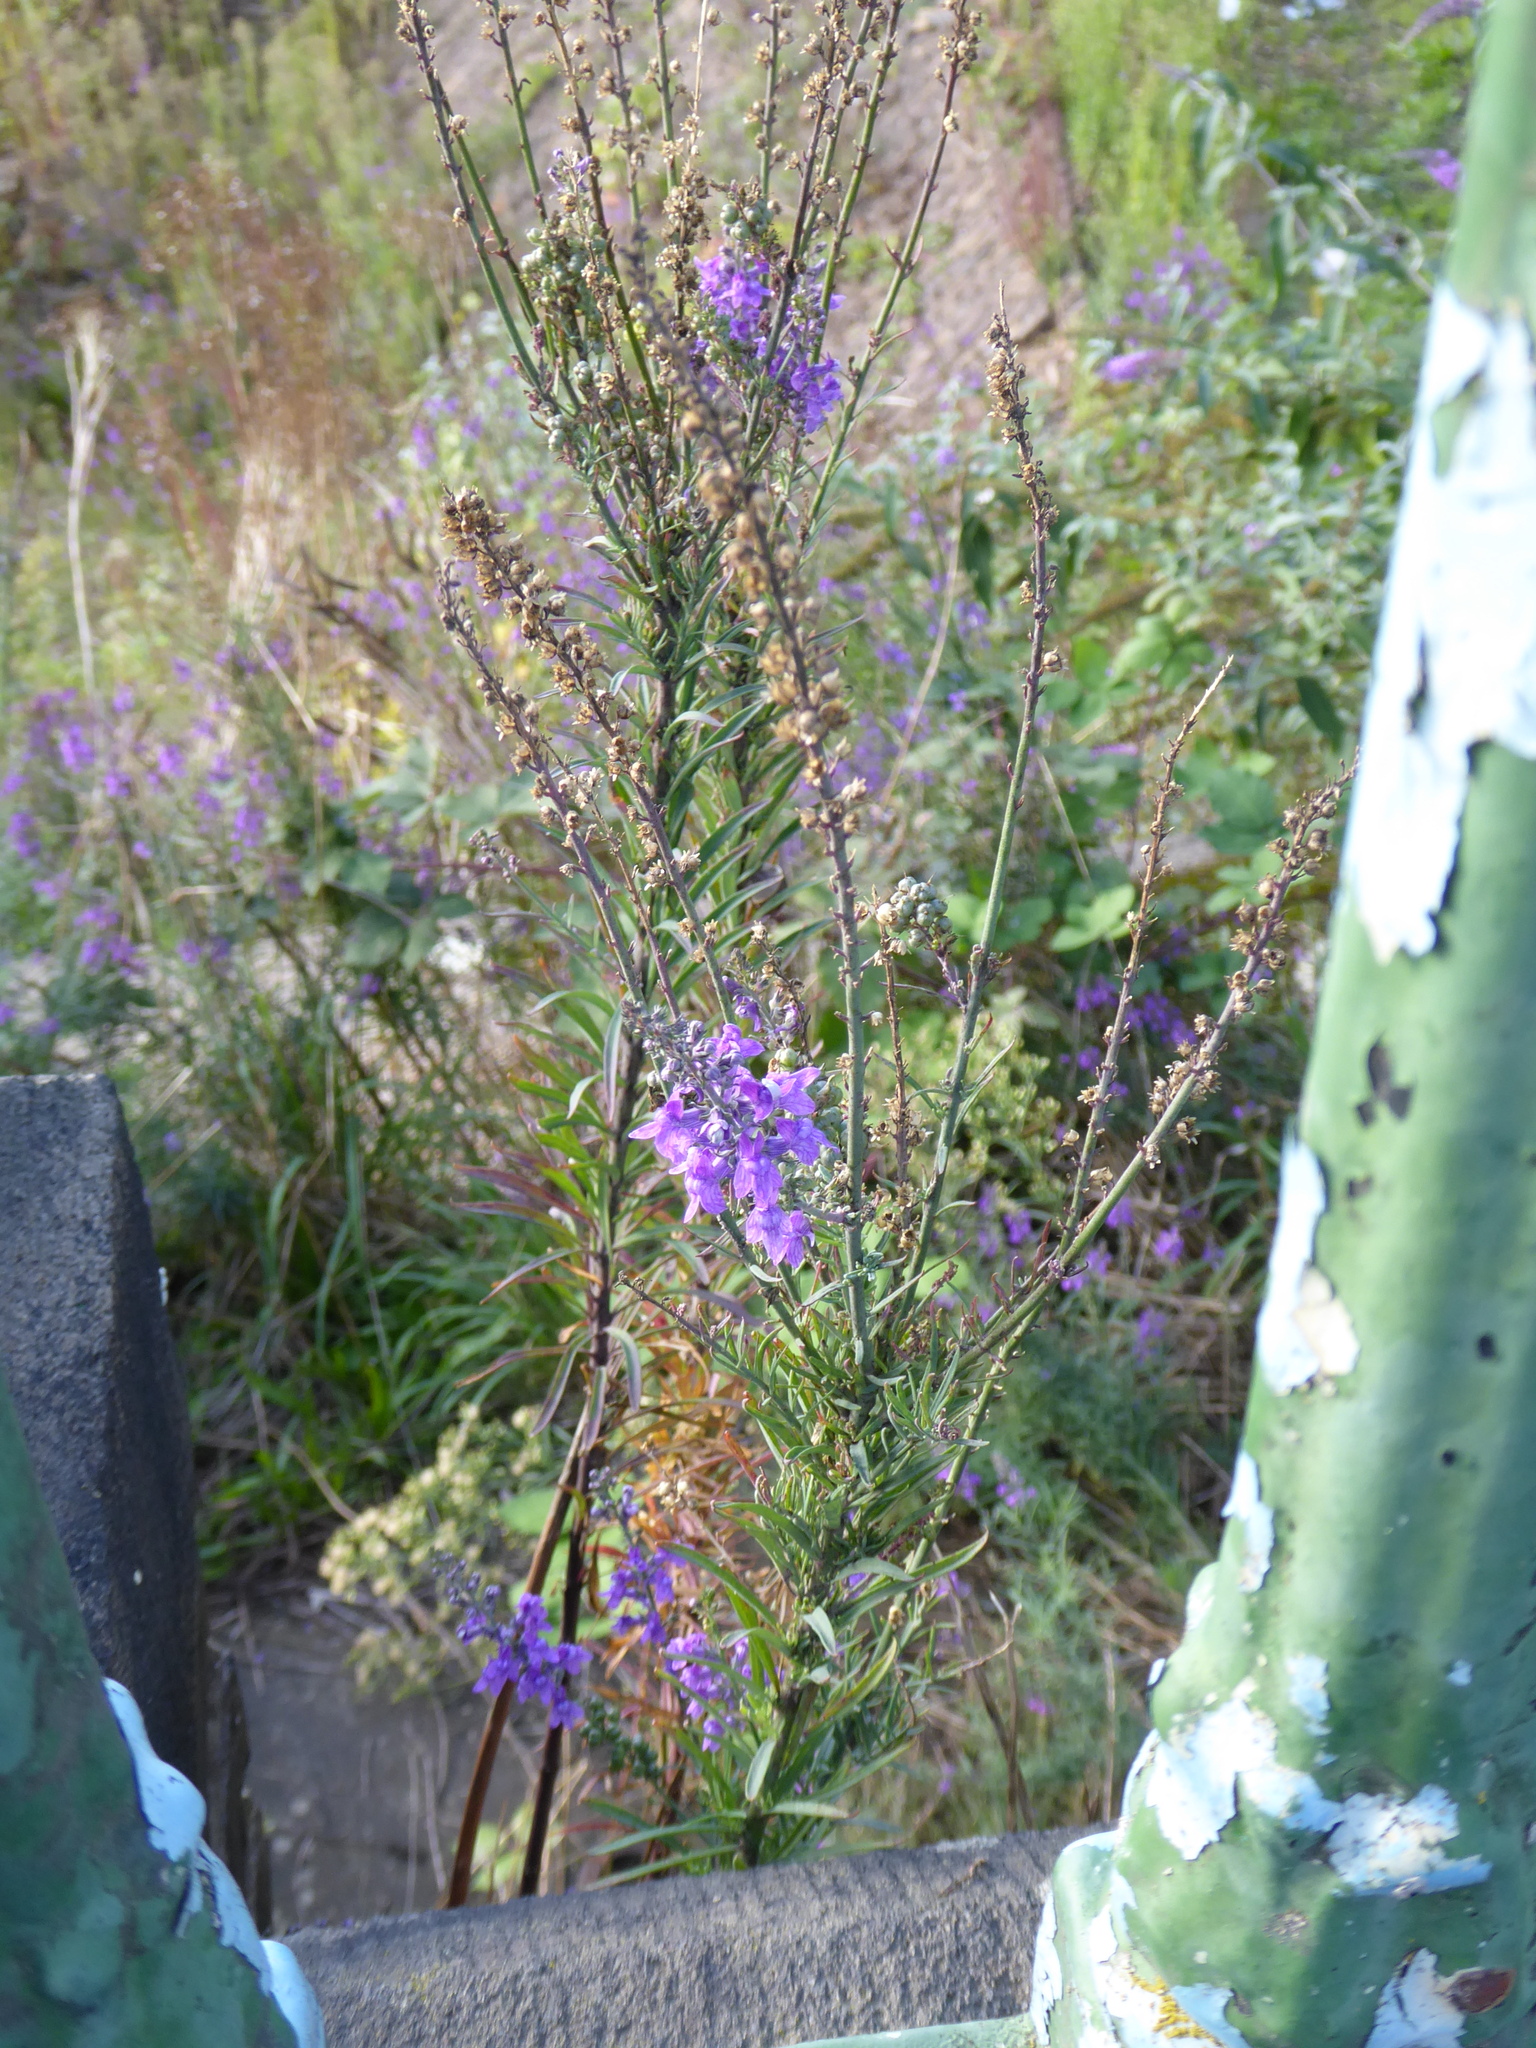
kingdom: Plantae
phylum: Tracheophyta
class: Magnoliopsida
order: Lamiales
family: Plantaginaceae
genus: Linaria
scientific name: Linaria purpurea
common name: Purple toadflax
